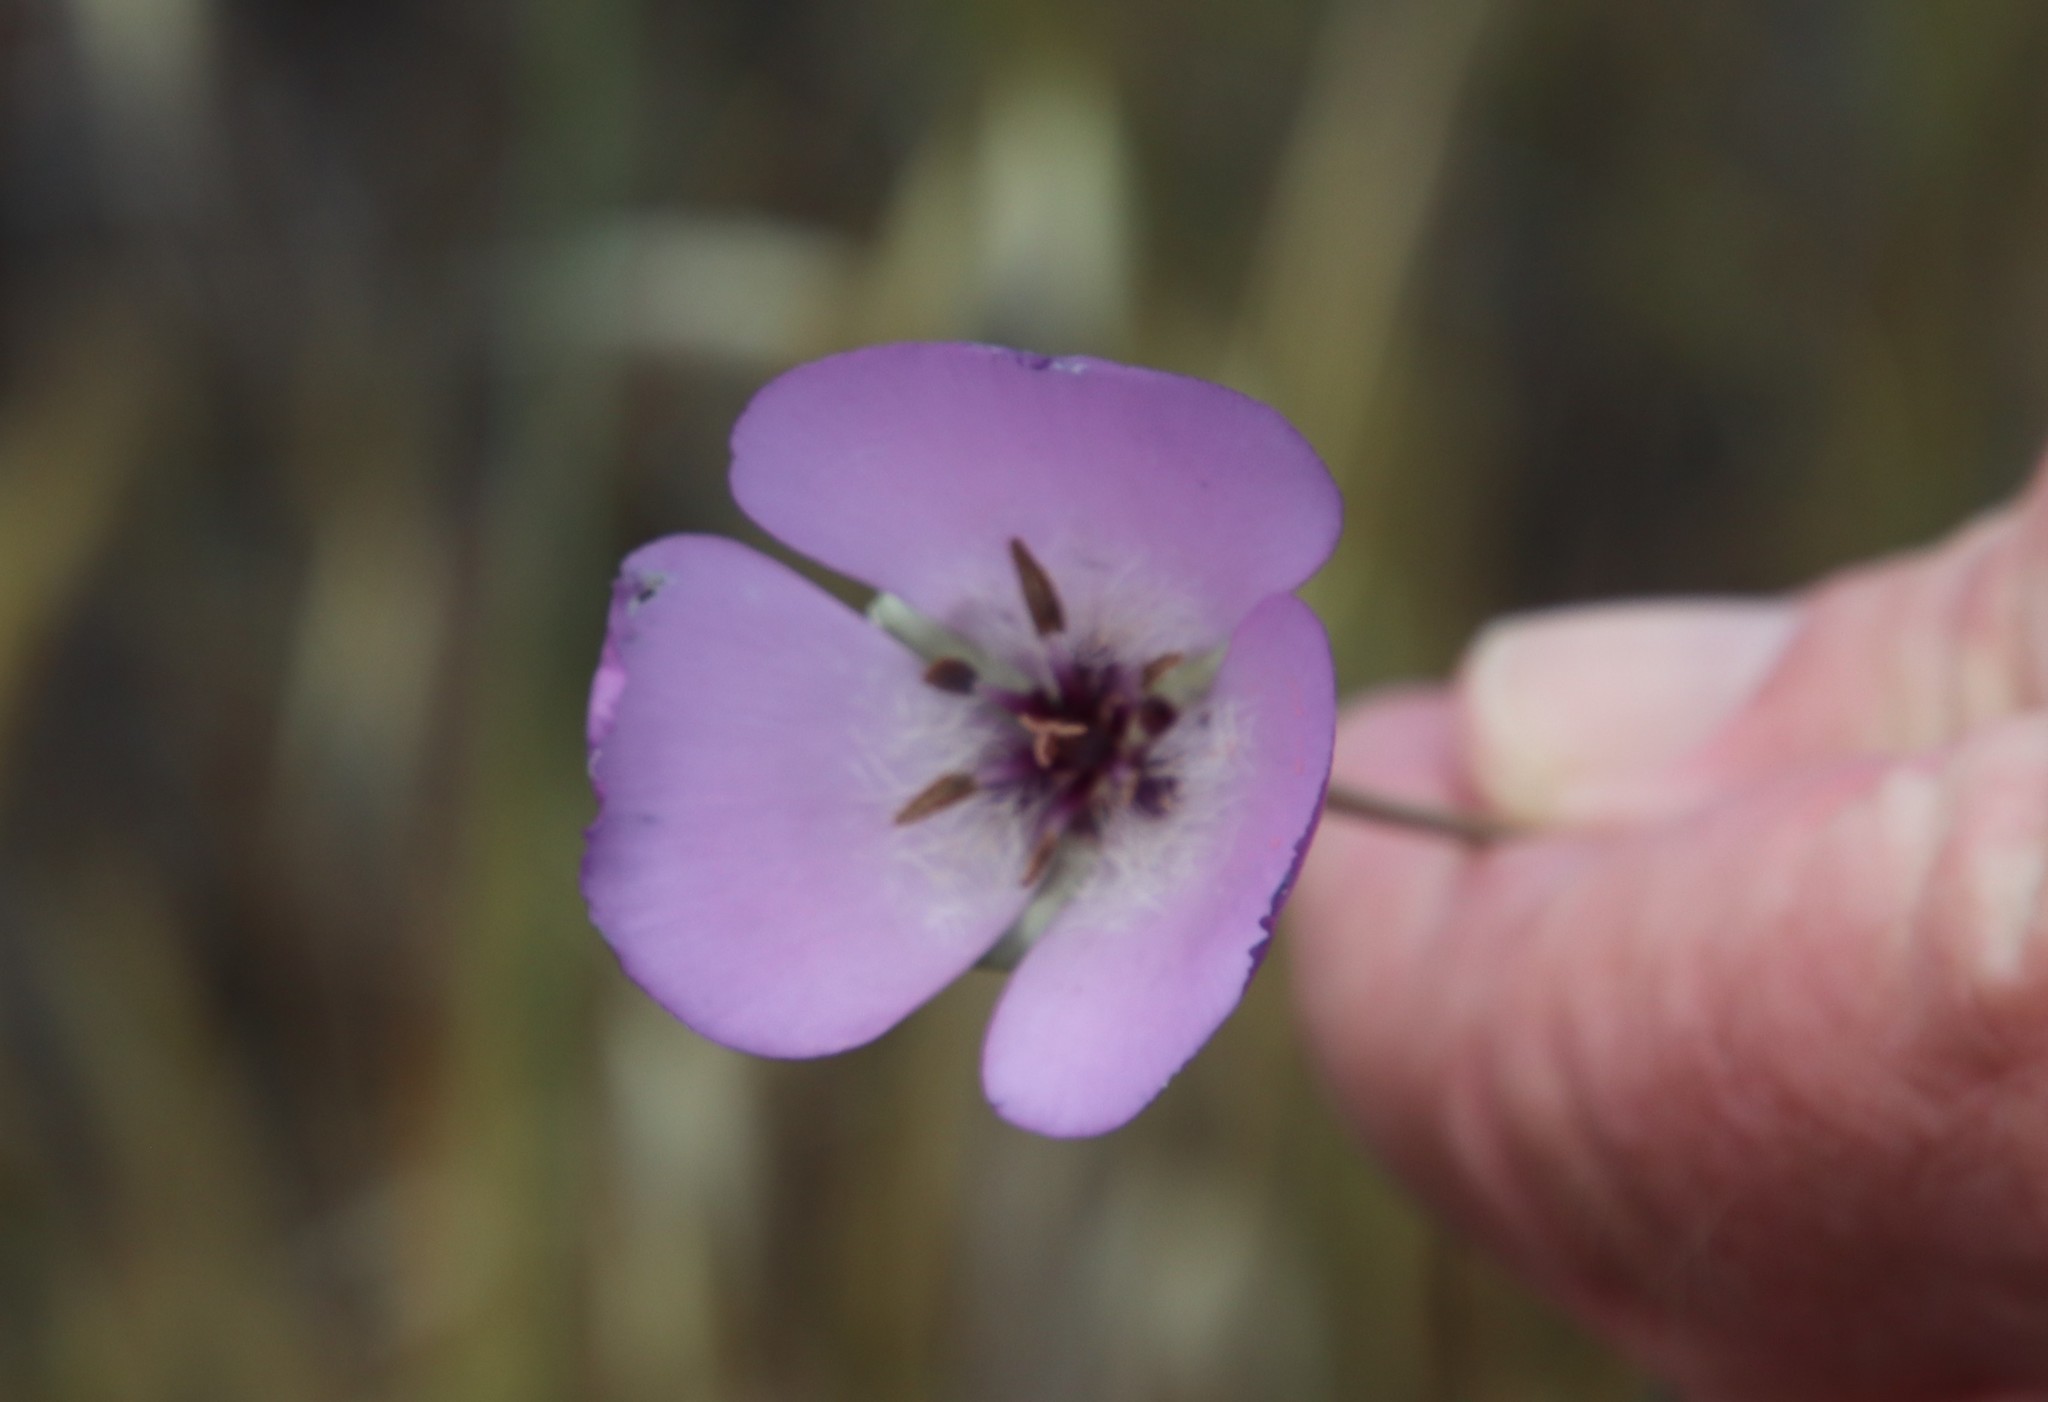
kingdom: Plantae
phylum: Tracheophyta
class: Liliopsida
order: Liliales
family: Liliaceae
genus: Calochortus
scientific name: Calochortus splendens
